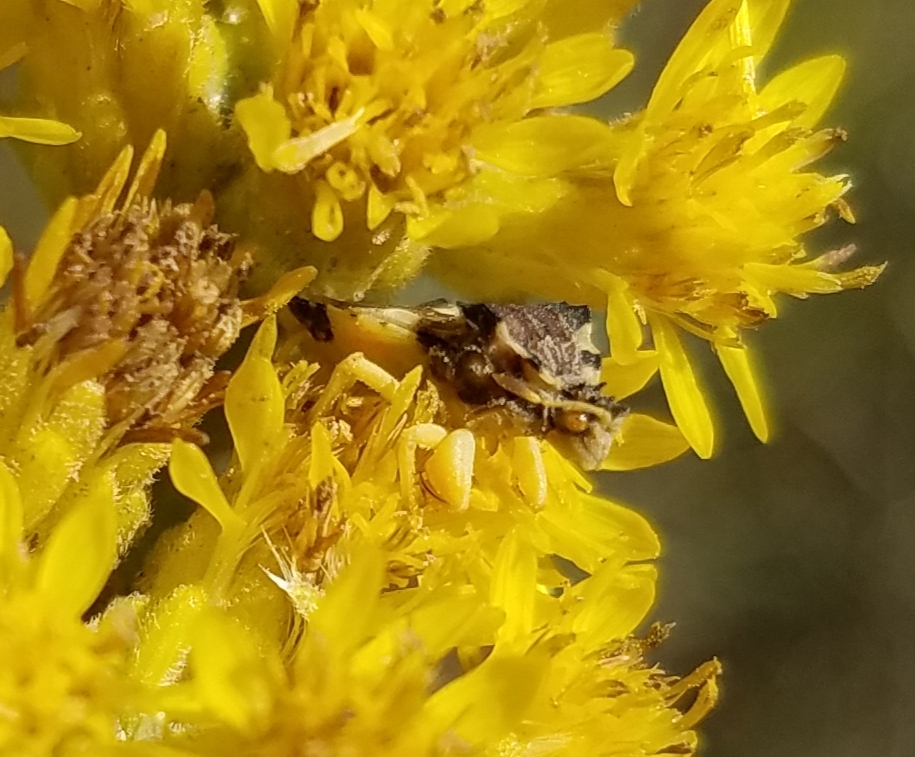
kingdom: Animalia
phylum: Arthropoda
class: Insecta
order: Hemiptera
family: Reduviidae
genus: Phymata
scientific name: Phymata americana
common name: Jagged ambush bug
